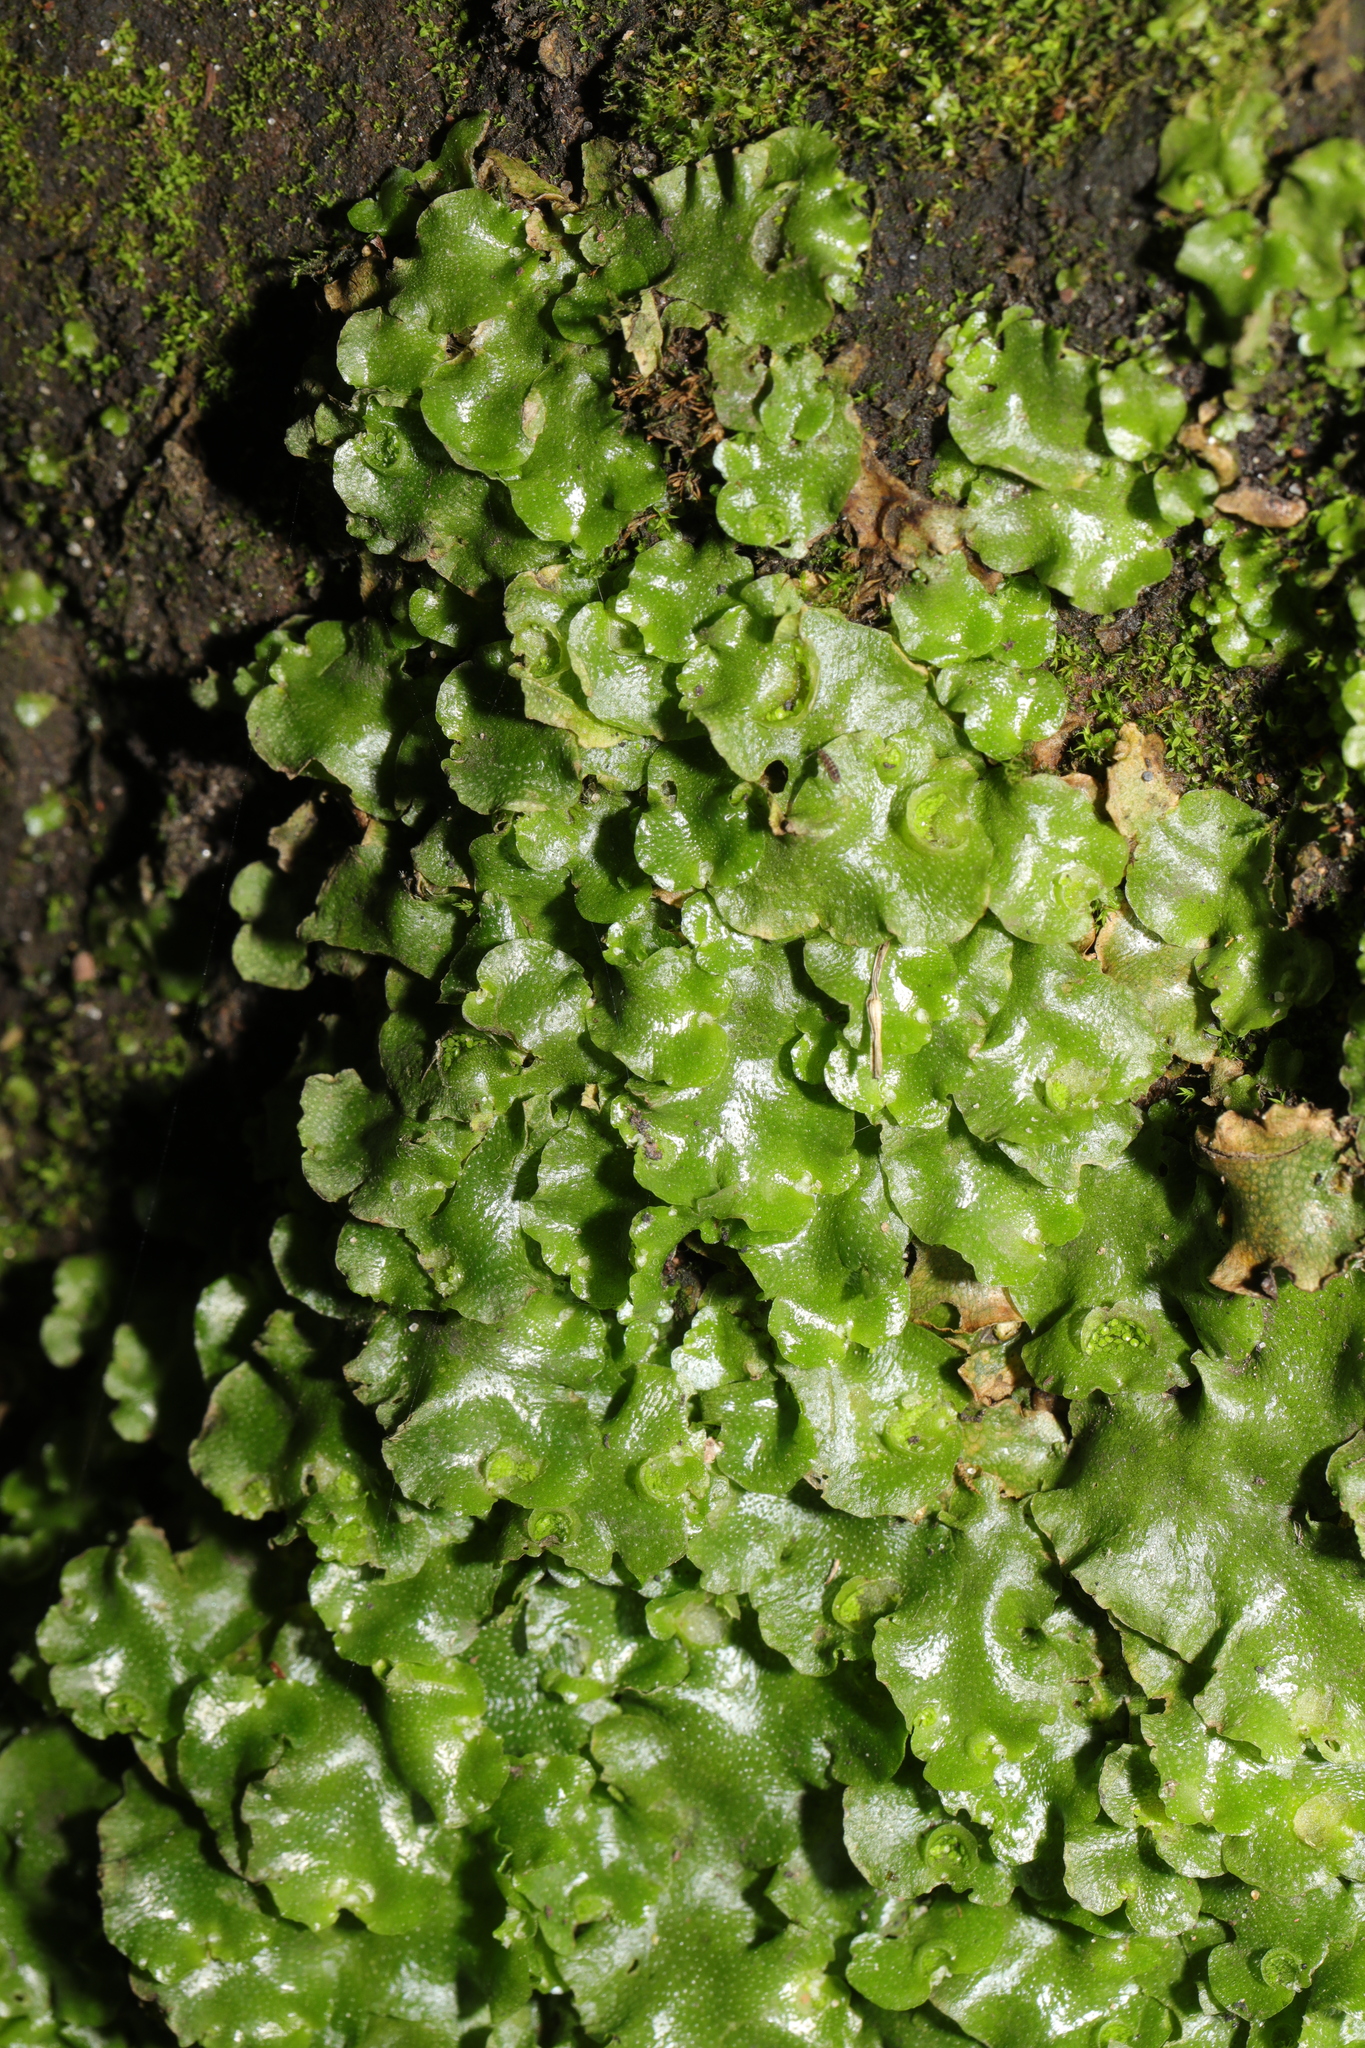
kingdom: Plantae
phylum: Marchantiophyta
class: Marchantiopsida
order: Lunulariales
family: Lunulariaceae
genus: Lunularia
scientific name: Lunularia cruciata
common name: Crescent-cup liverwort
